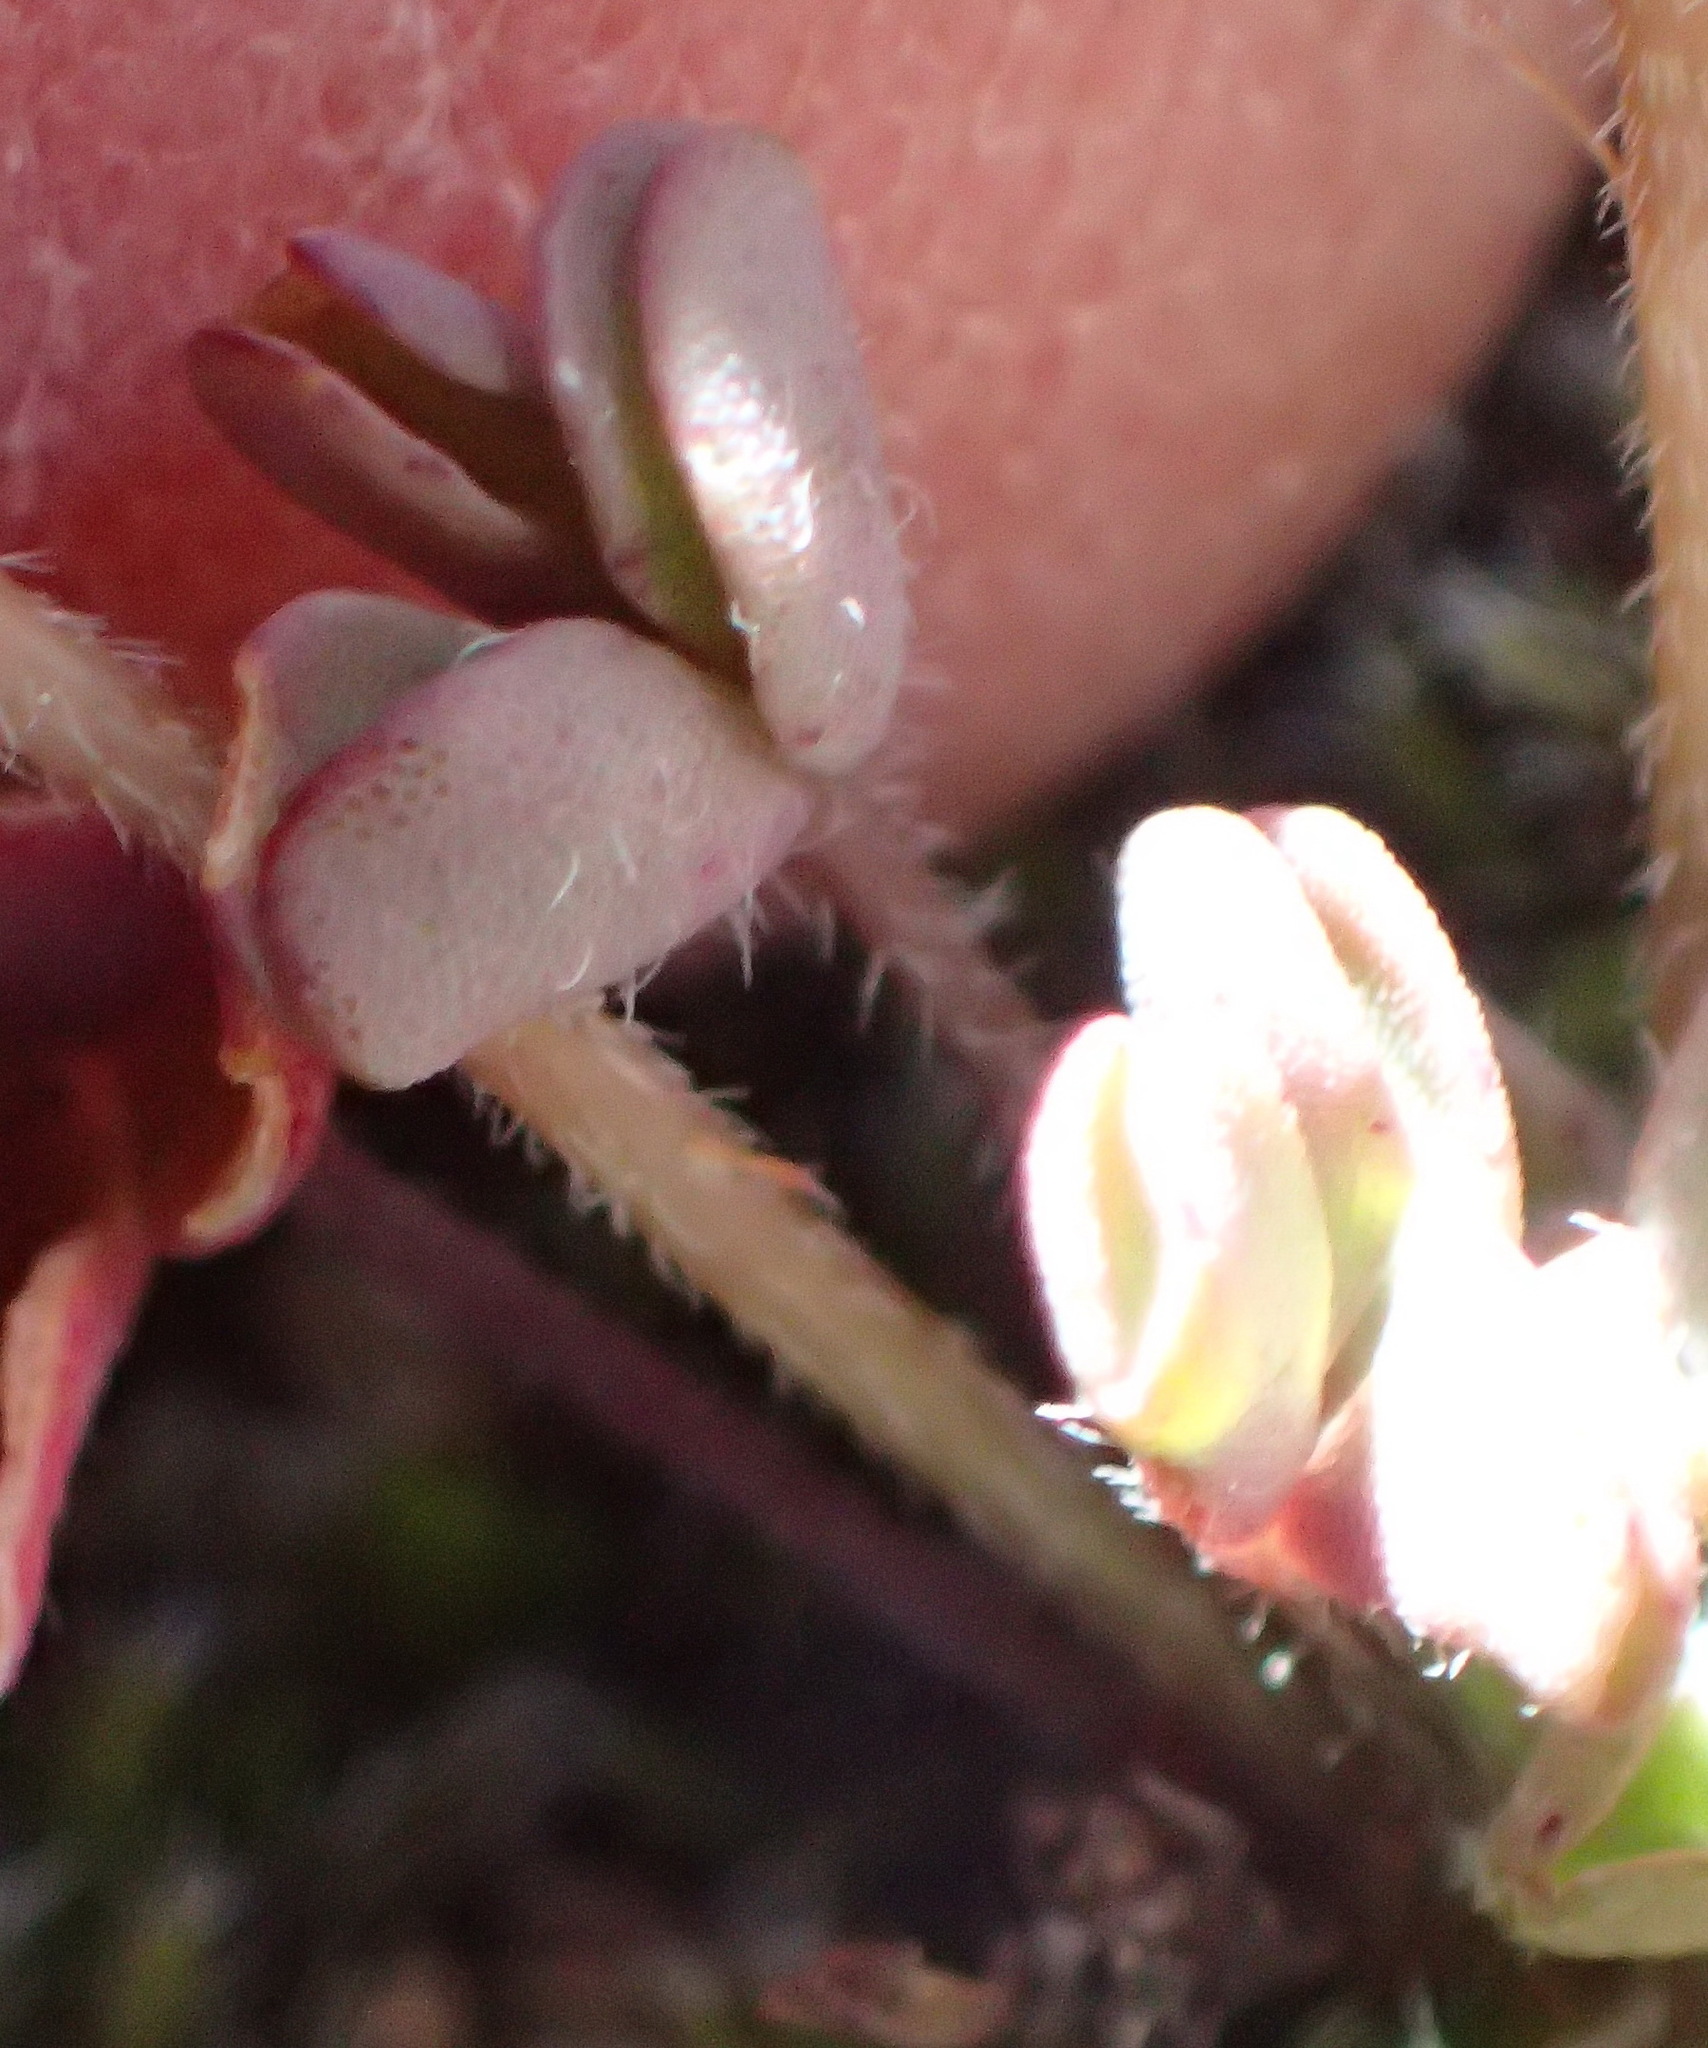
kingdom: Plantae
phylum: Tracheophyta
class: Magnoliopsida
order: Oxalidales
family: Oxalidaceae
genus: Oxalis
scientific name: Oxalis obtusa
